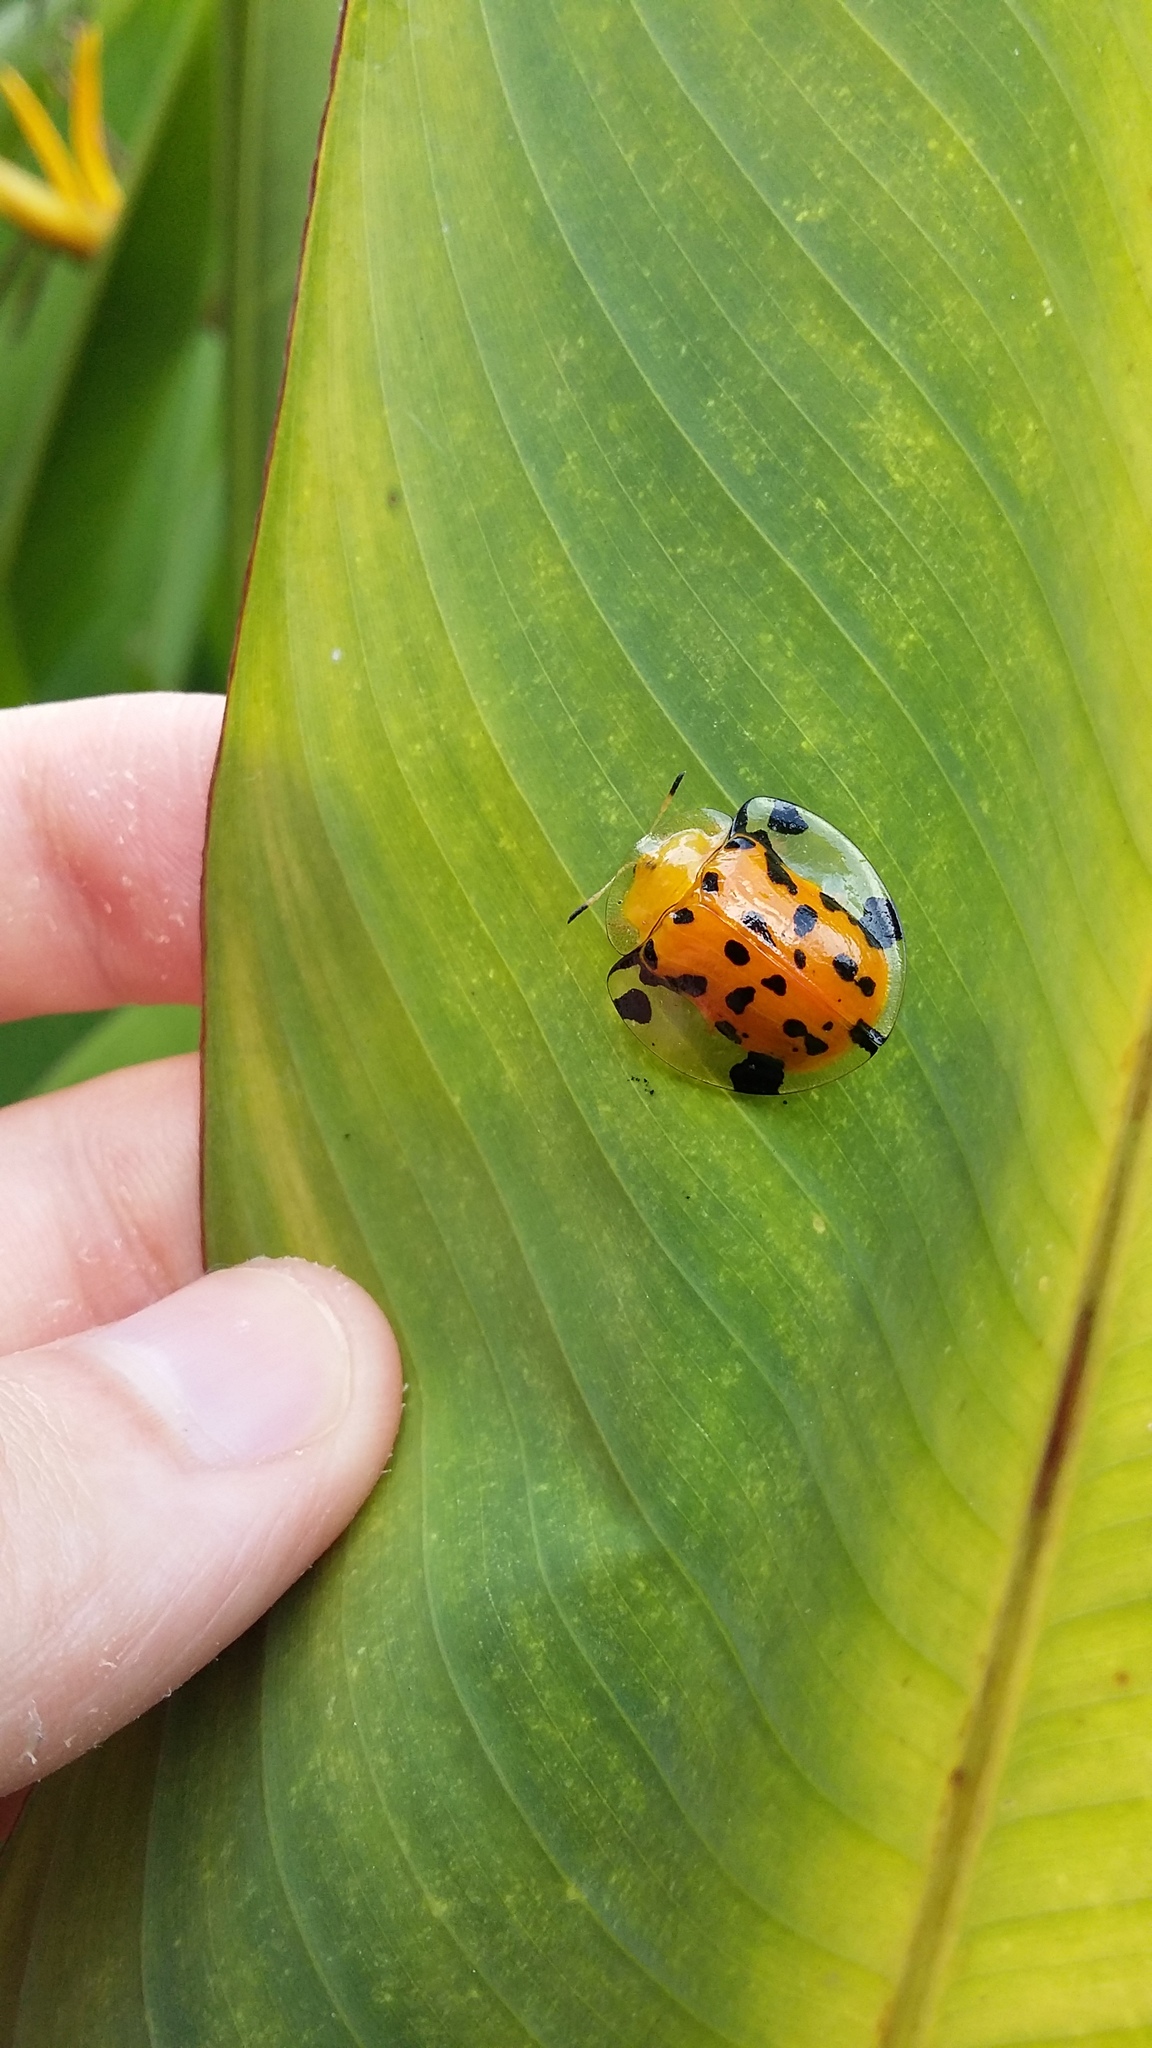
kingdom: Animalia
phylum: Arthropoda
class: Insecta
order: Coleoptera
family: Chrysomelidae
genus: Aspidimorpha
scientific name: Aspidimorpha miliaris
